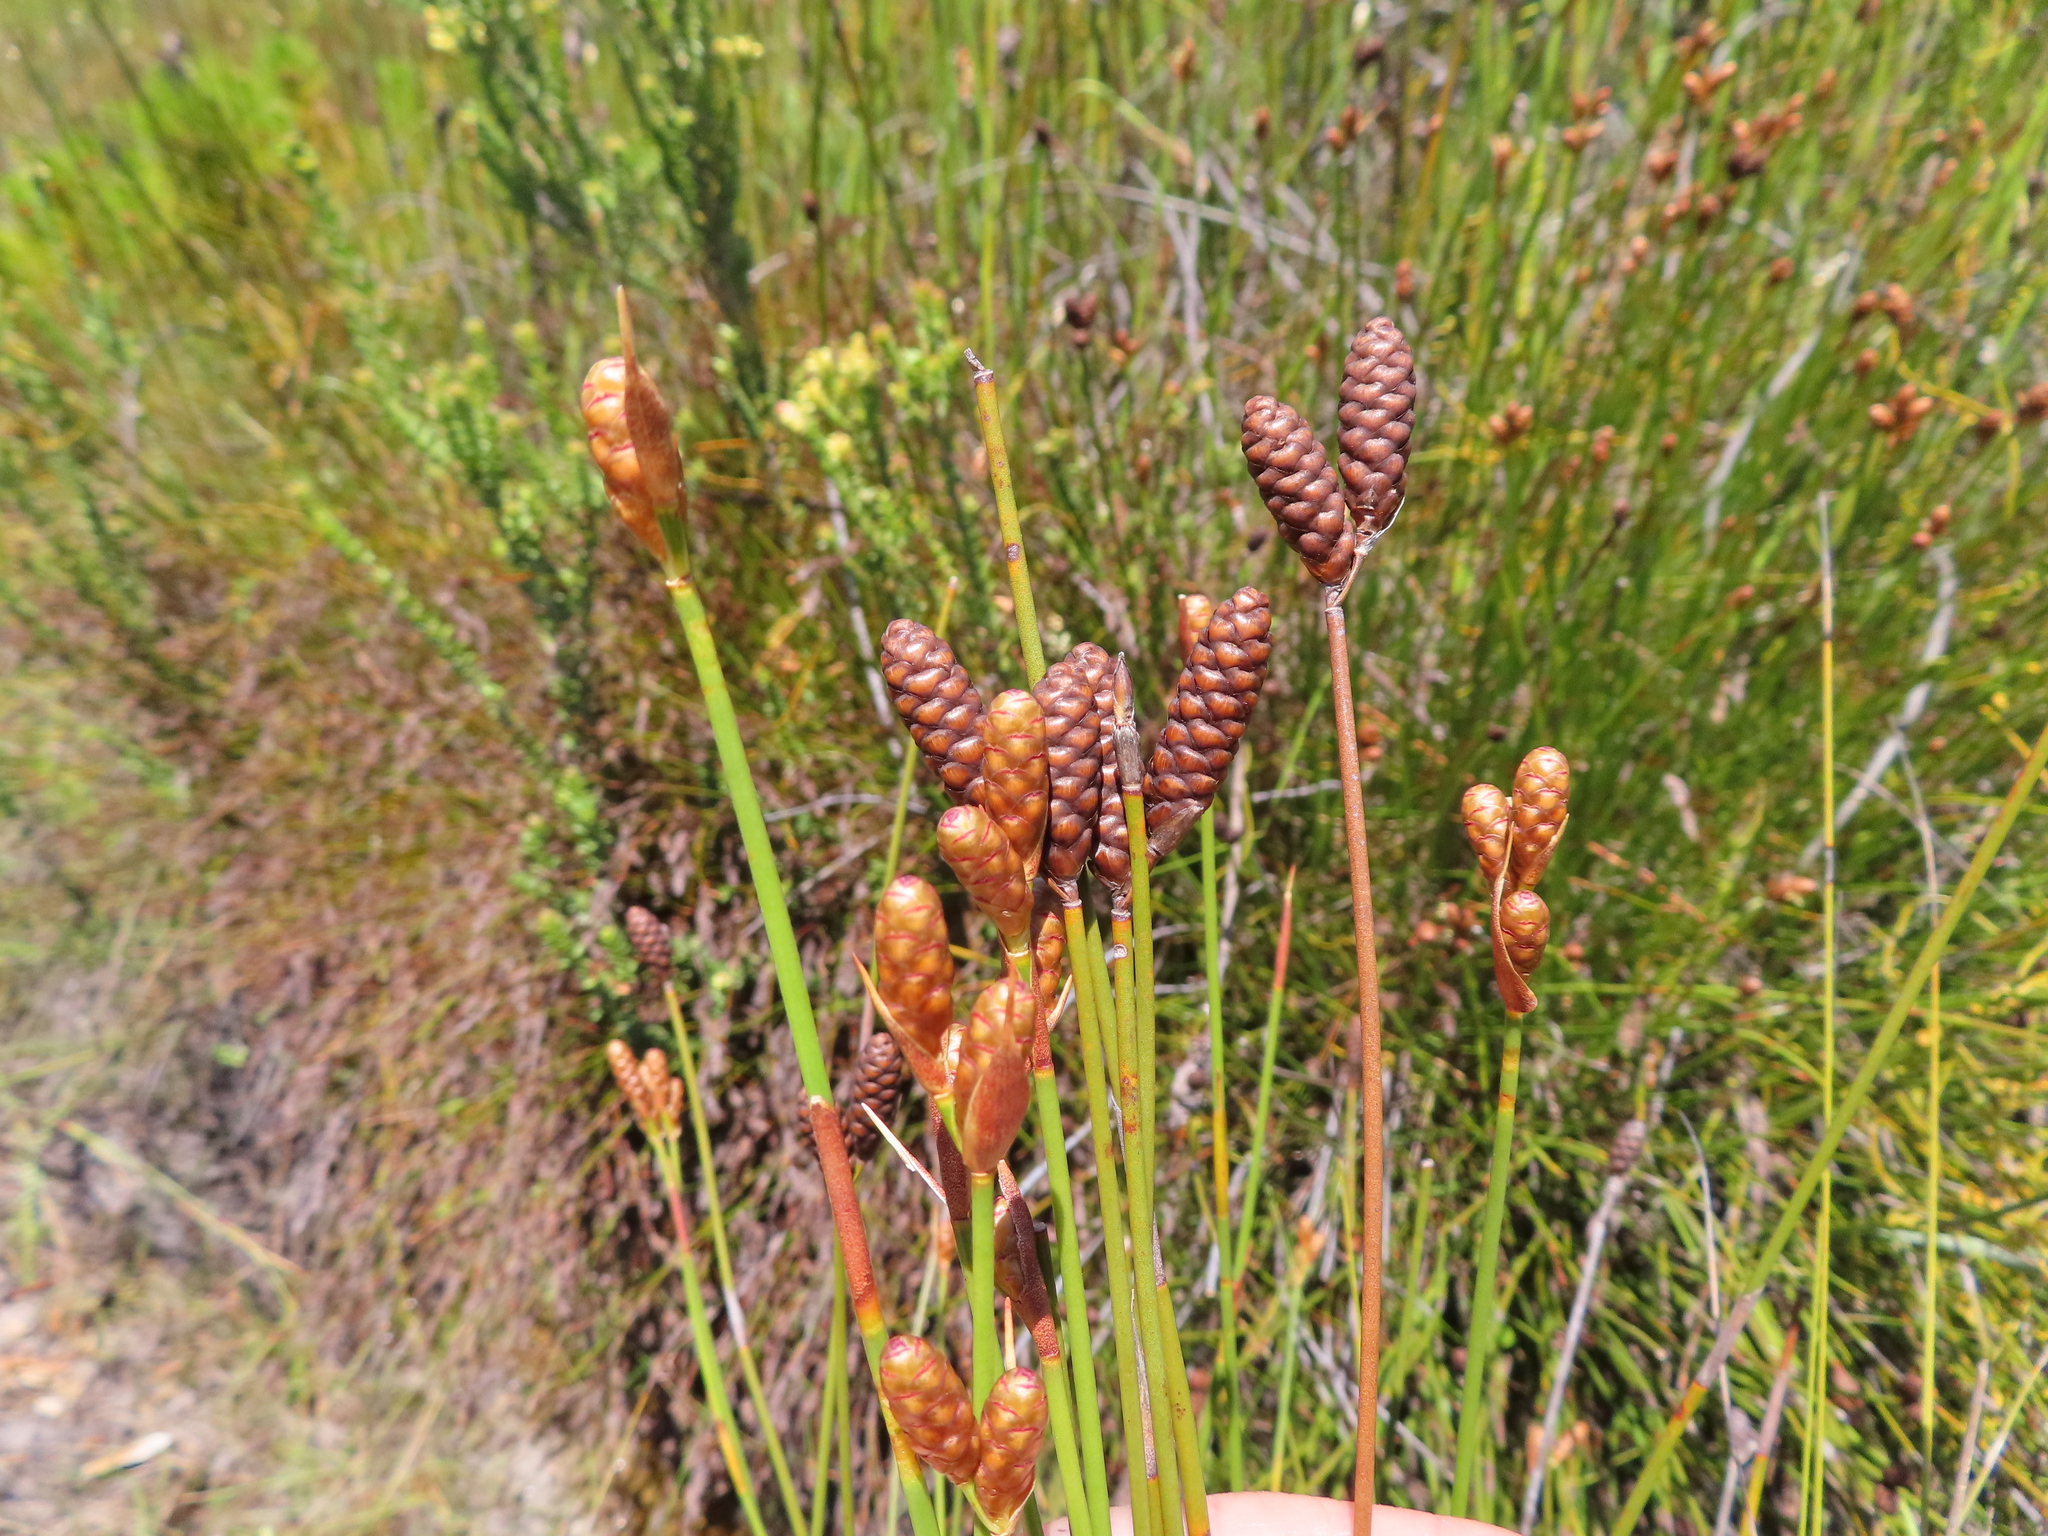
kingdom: Plantae
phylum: Tracheophyta
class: Liliopsida
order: Poales
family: Restionaceae
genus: Nevillea
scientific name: Nevillea obtusissimus
